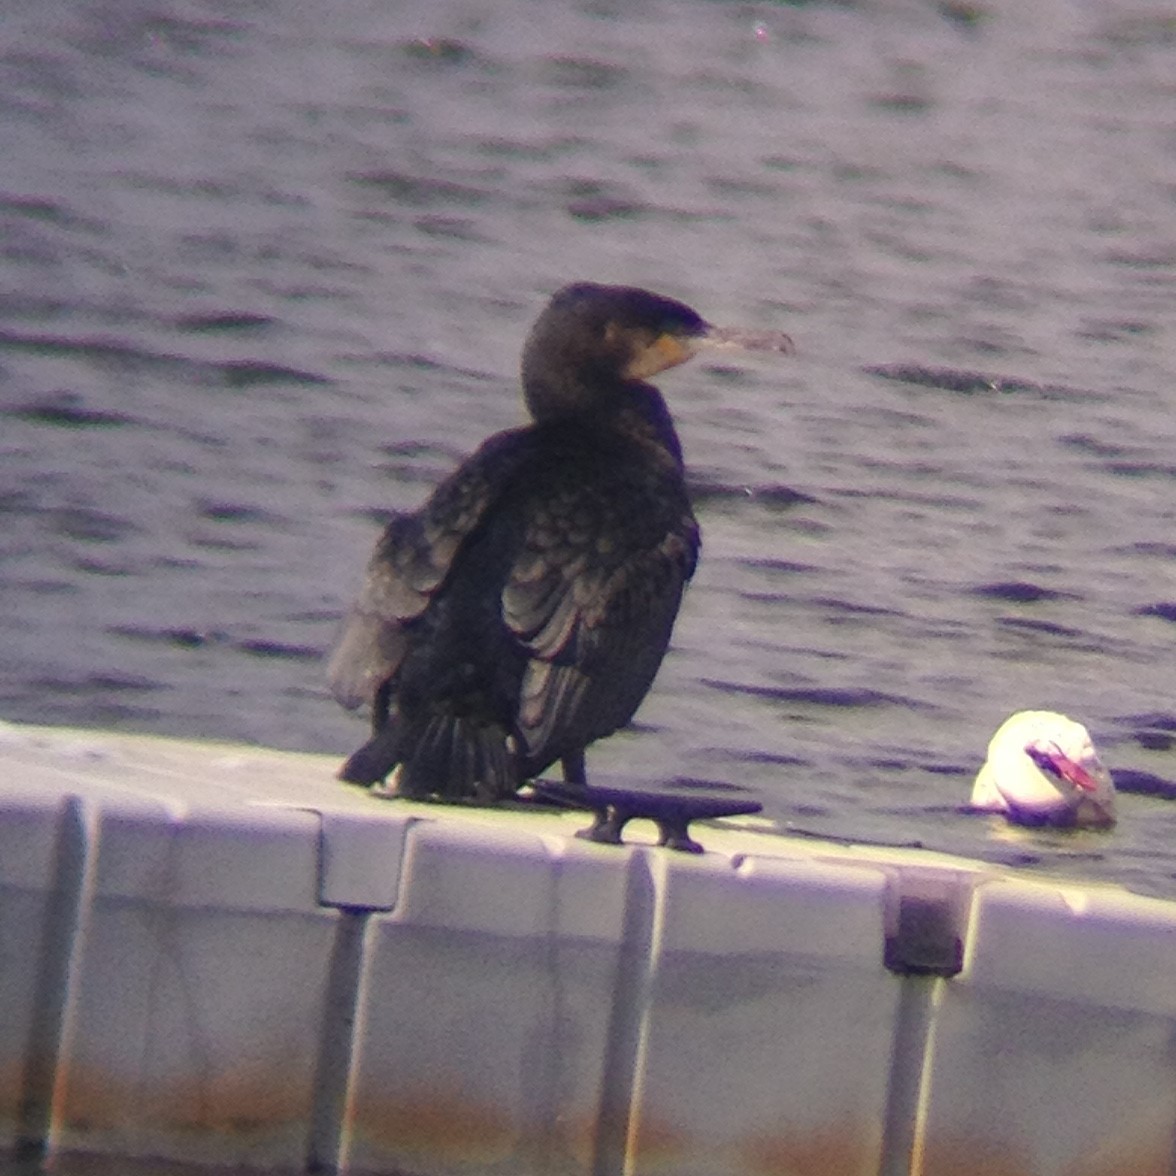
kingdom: Animalia
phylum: Chordata
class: Aves
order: Suliformes
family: Phalacrocoracidae
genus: Phalacrocorax
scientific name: Phalacrocorax carbo
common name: Great cormorant
